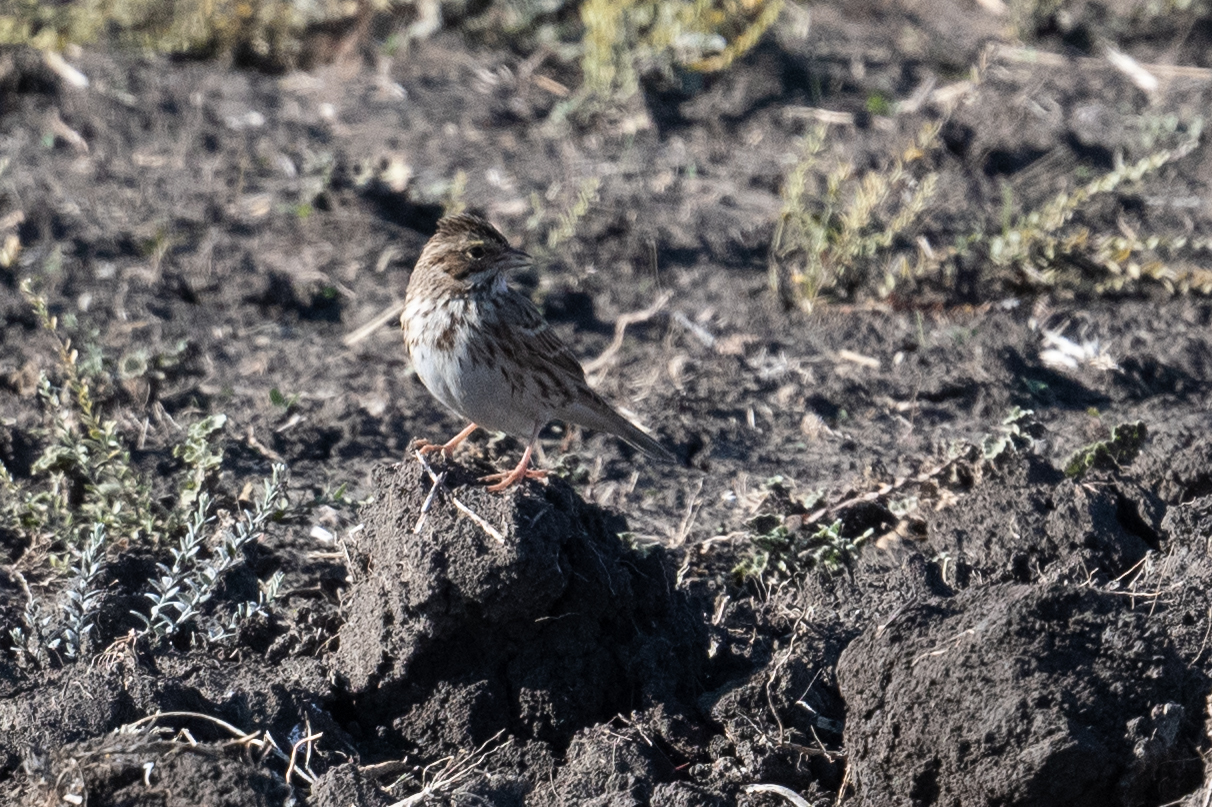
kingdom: Animalia
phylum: Chordata
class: Aves
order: Passeriformes
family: Passerellidae
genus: Passerculus
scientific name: Passerculus sandwichensis
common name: Savannah sparrow
